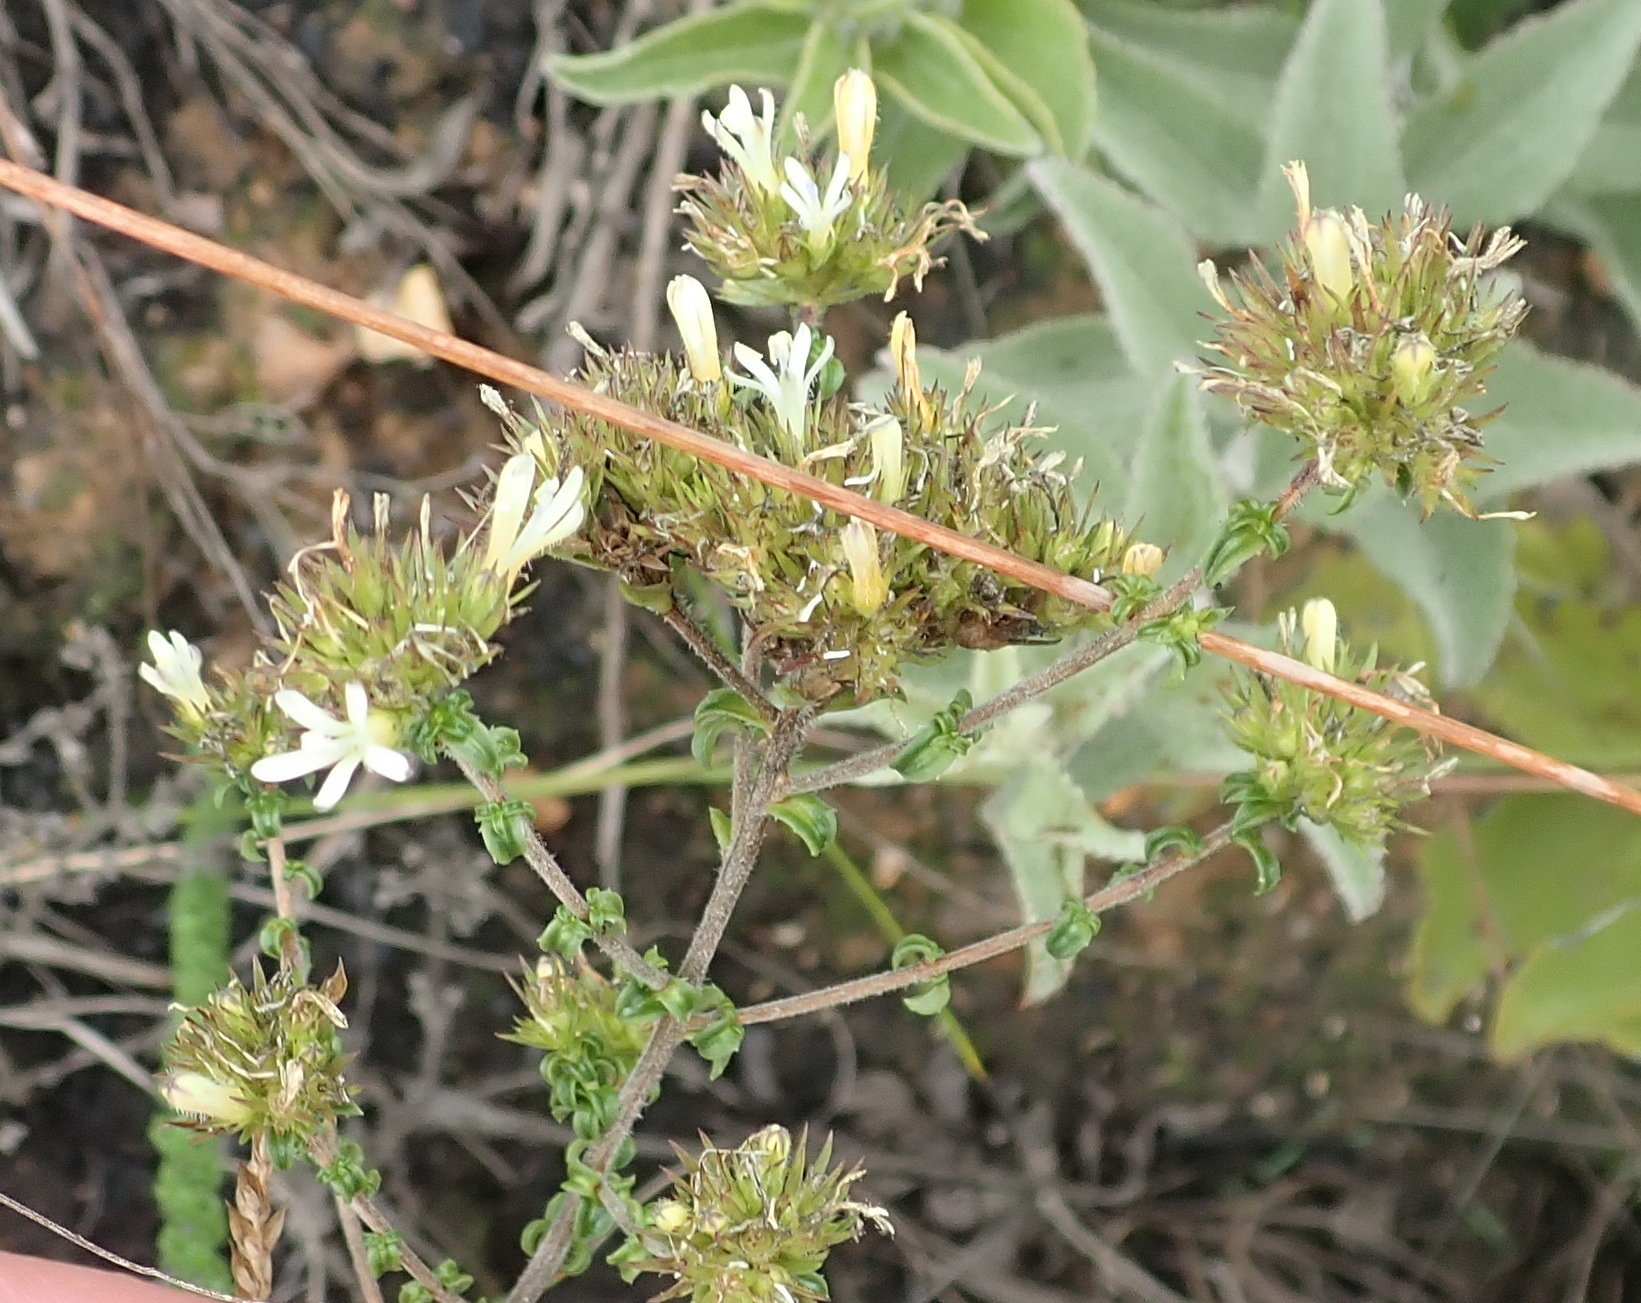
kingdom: Plantae
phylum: Tracheophyta
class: Magnoliopsida
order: Asterales
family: Campanulaceae
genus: Wahlenbergia
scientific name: Wahlenbergia desmantha
